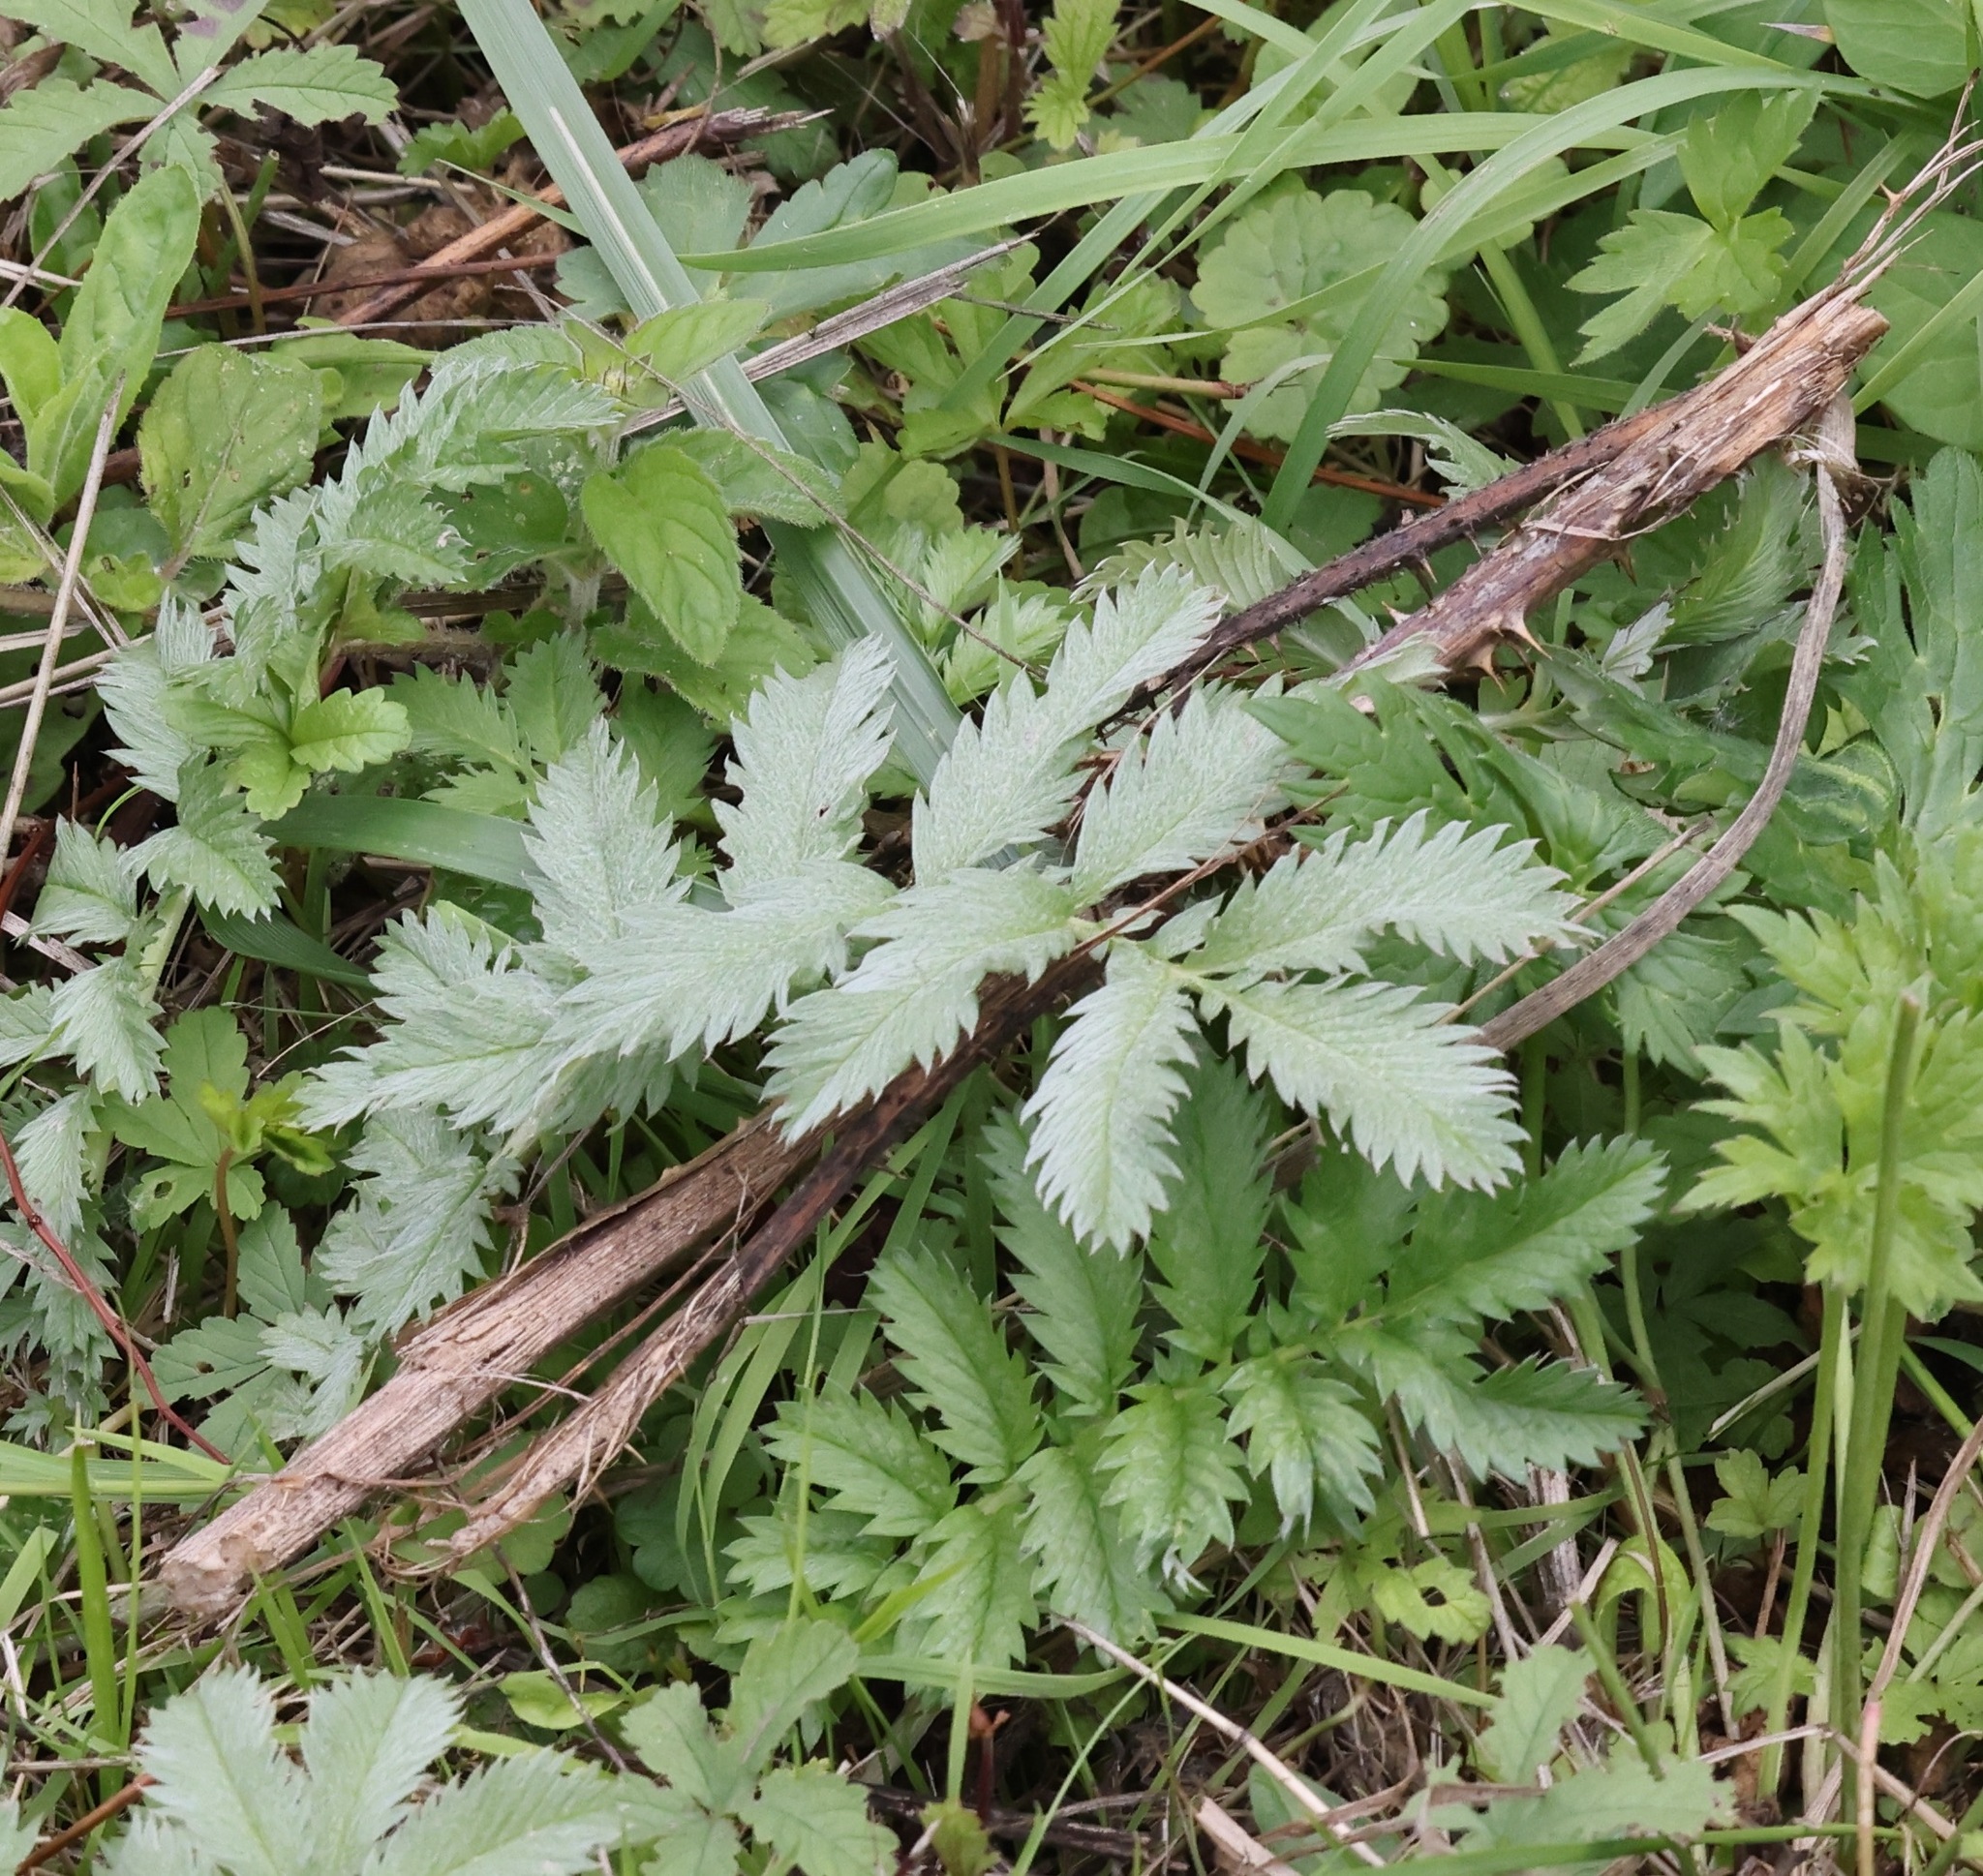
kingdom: Plantae
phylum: Tracheophyta
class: Magnoliopsida
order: Rosales
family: Rosaceae
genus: Argentina
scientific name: Argentina anserina
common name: Common silverweed
